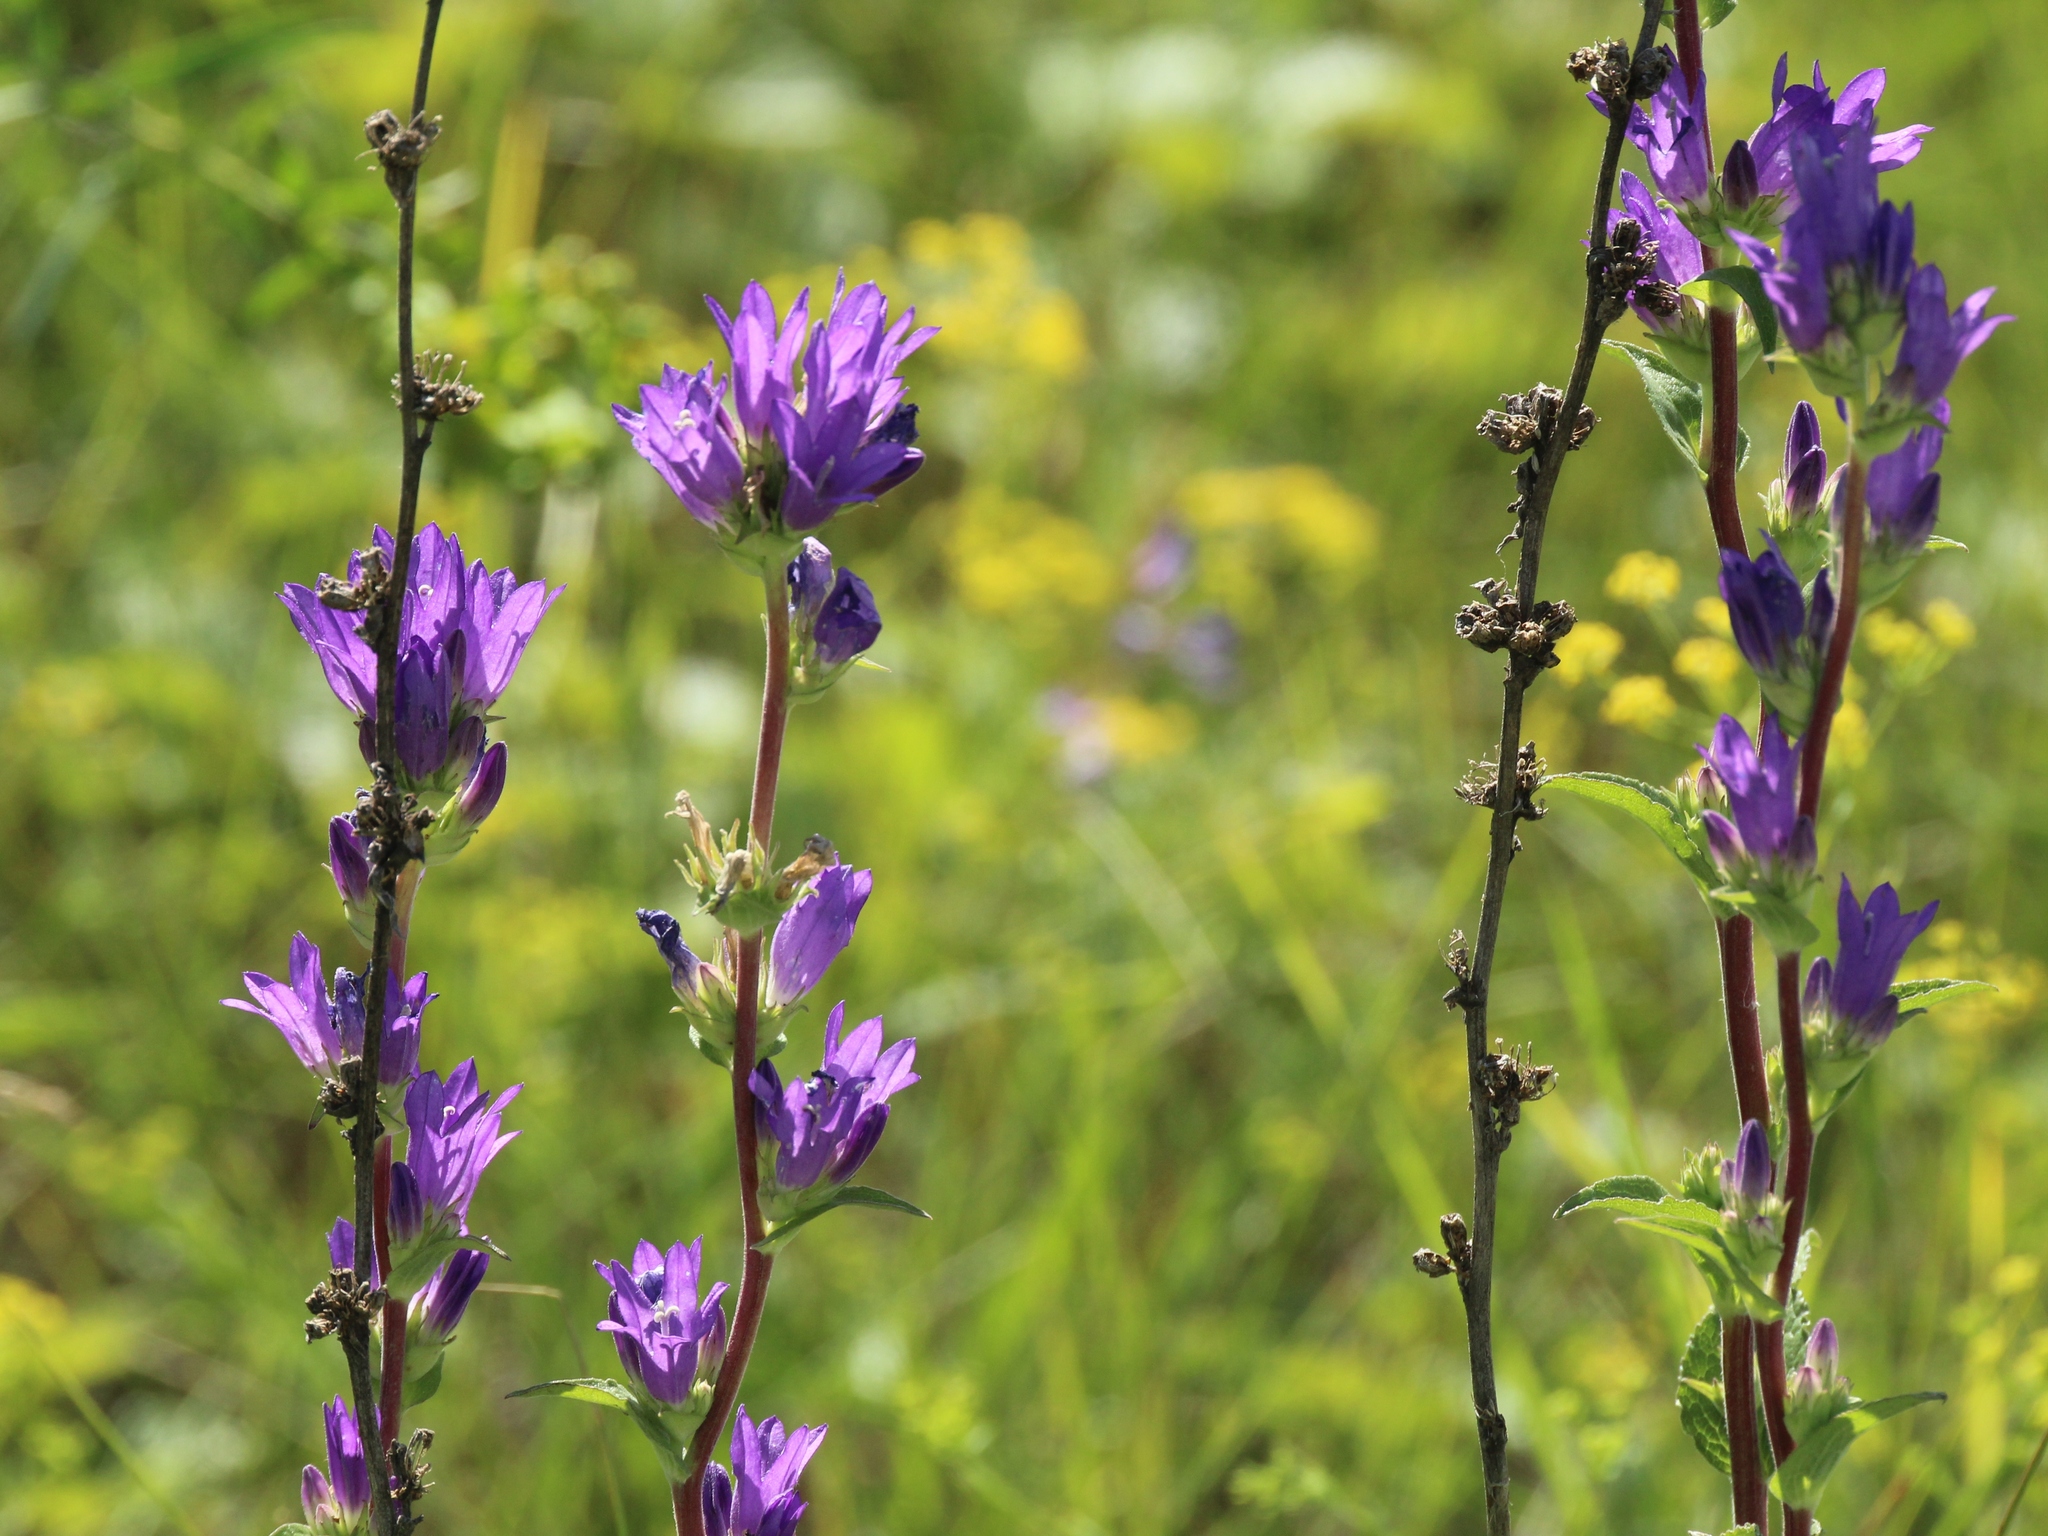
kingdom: Plantae
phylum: Tracheophyta
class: Magnoliopsida
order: Asterales
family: Campanulaceae
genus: Campanula
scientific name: Campanula glomerata
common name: Clustered bellflower
